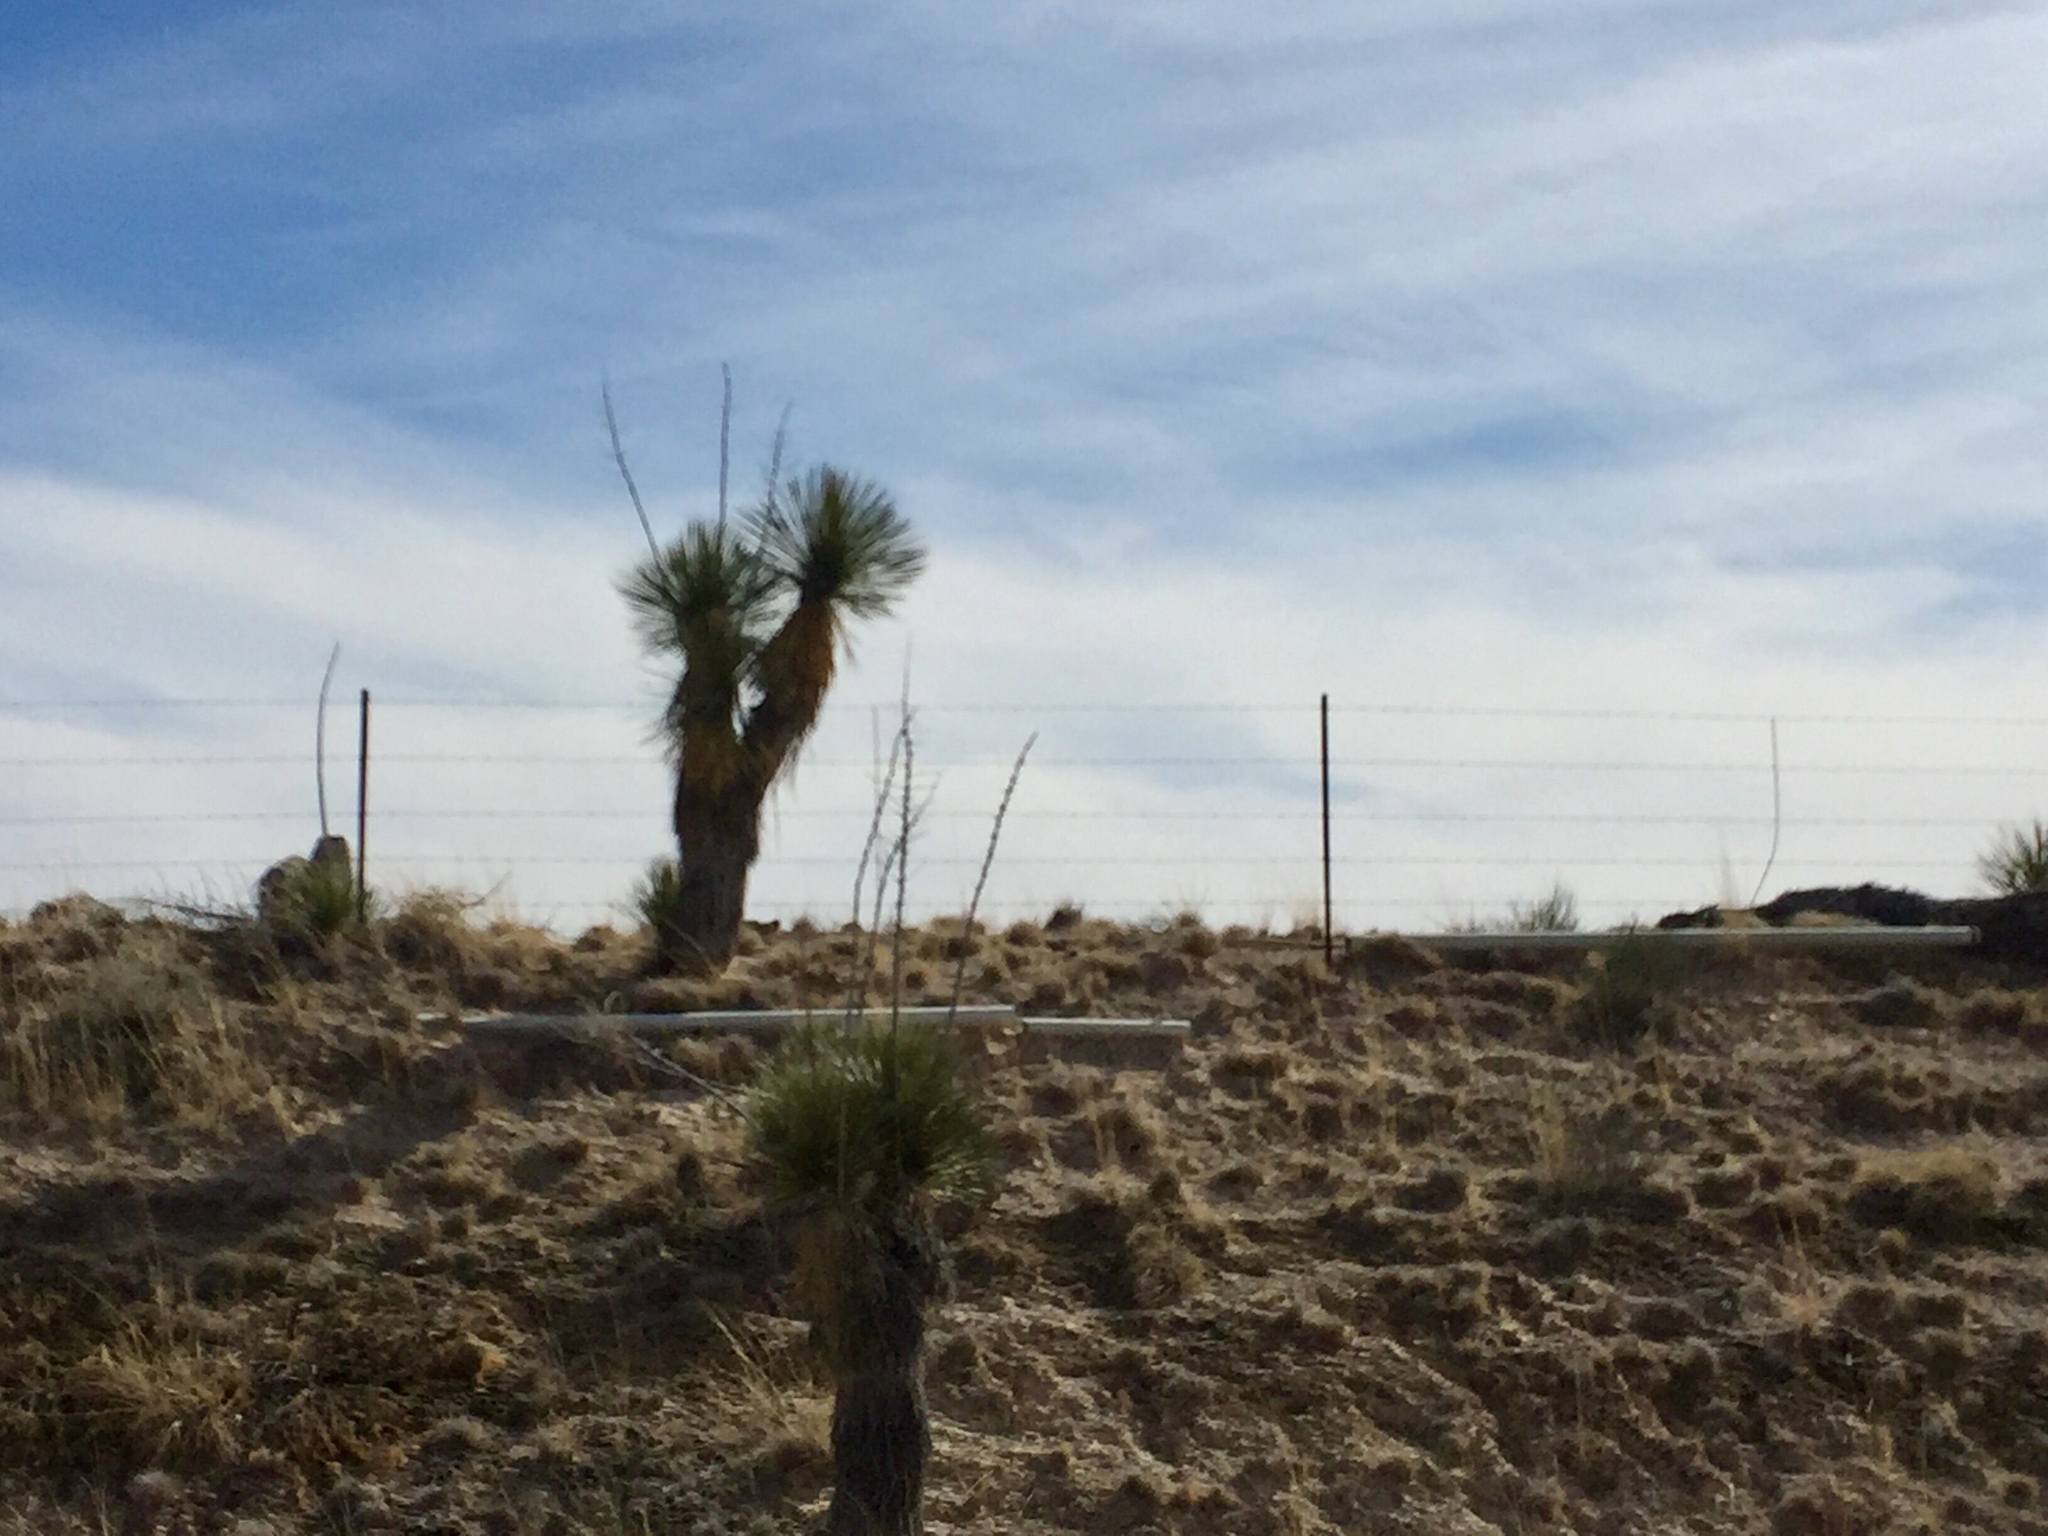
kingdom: Plantae
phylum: Tracheophyta
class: Liliopsida
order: Asparagales
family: Asparagaceae
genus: Yucca
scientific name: Yucca elata
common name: Palmella
